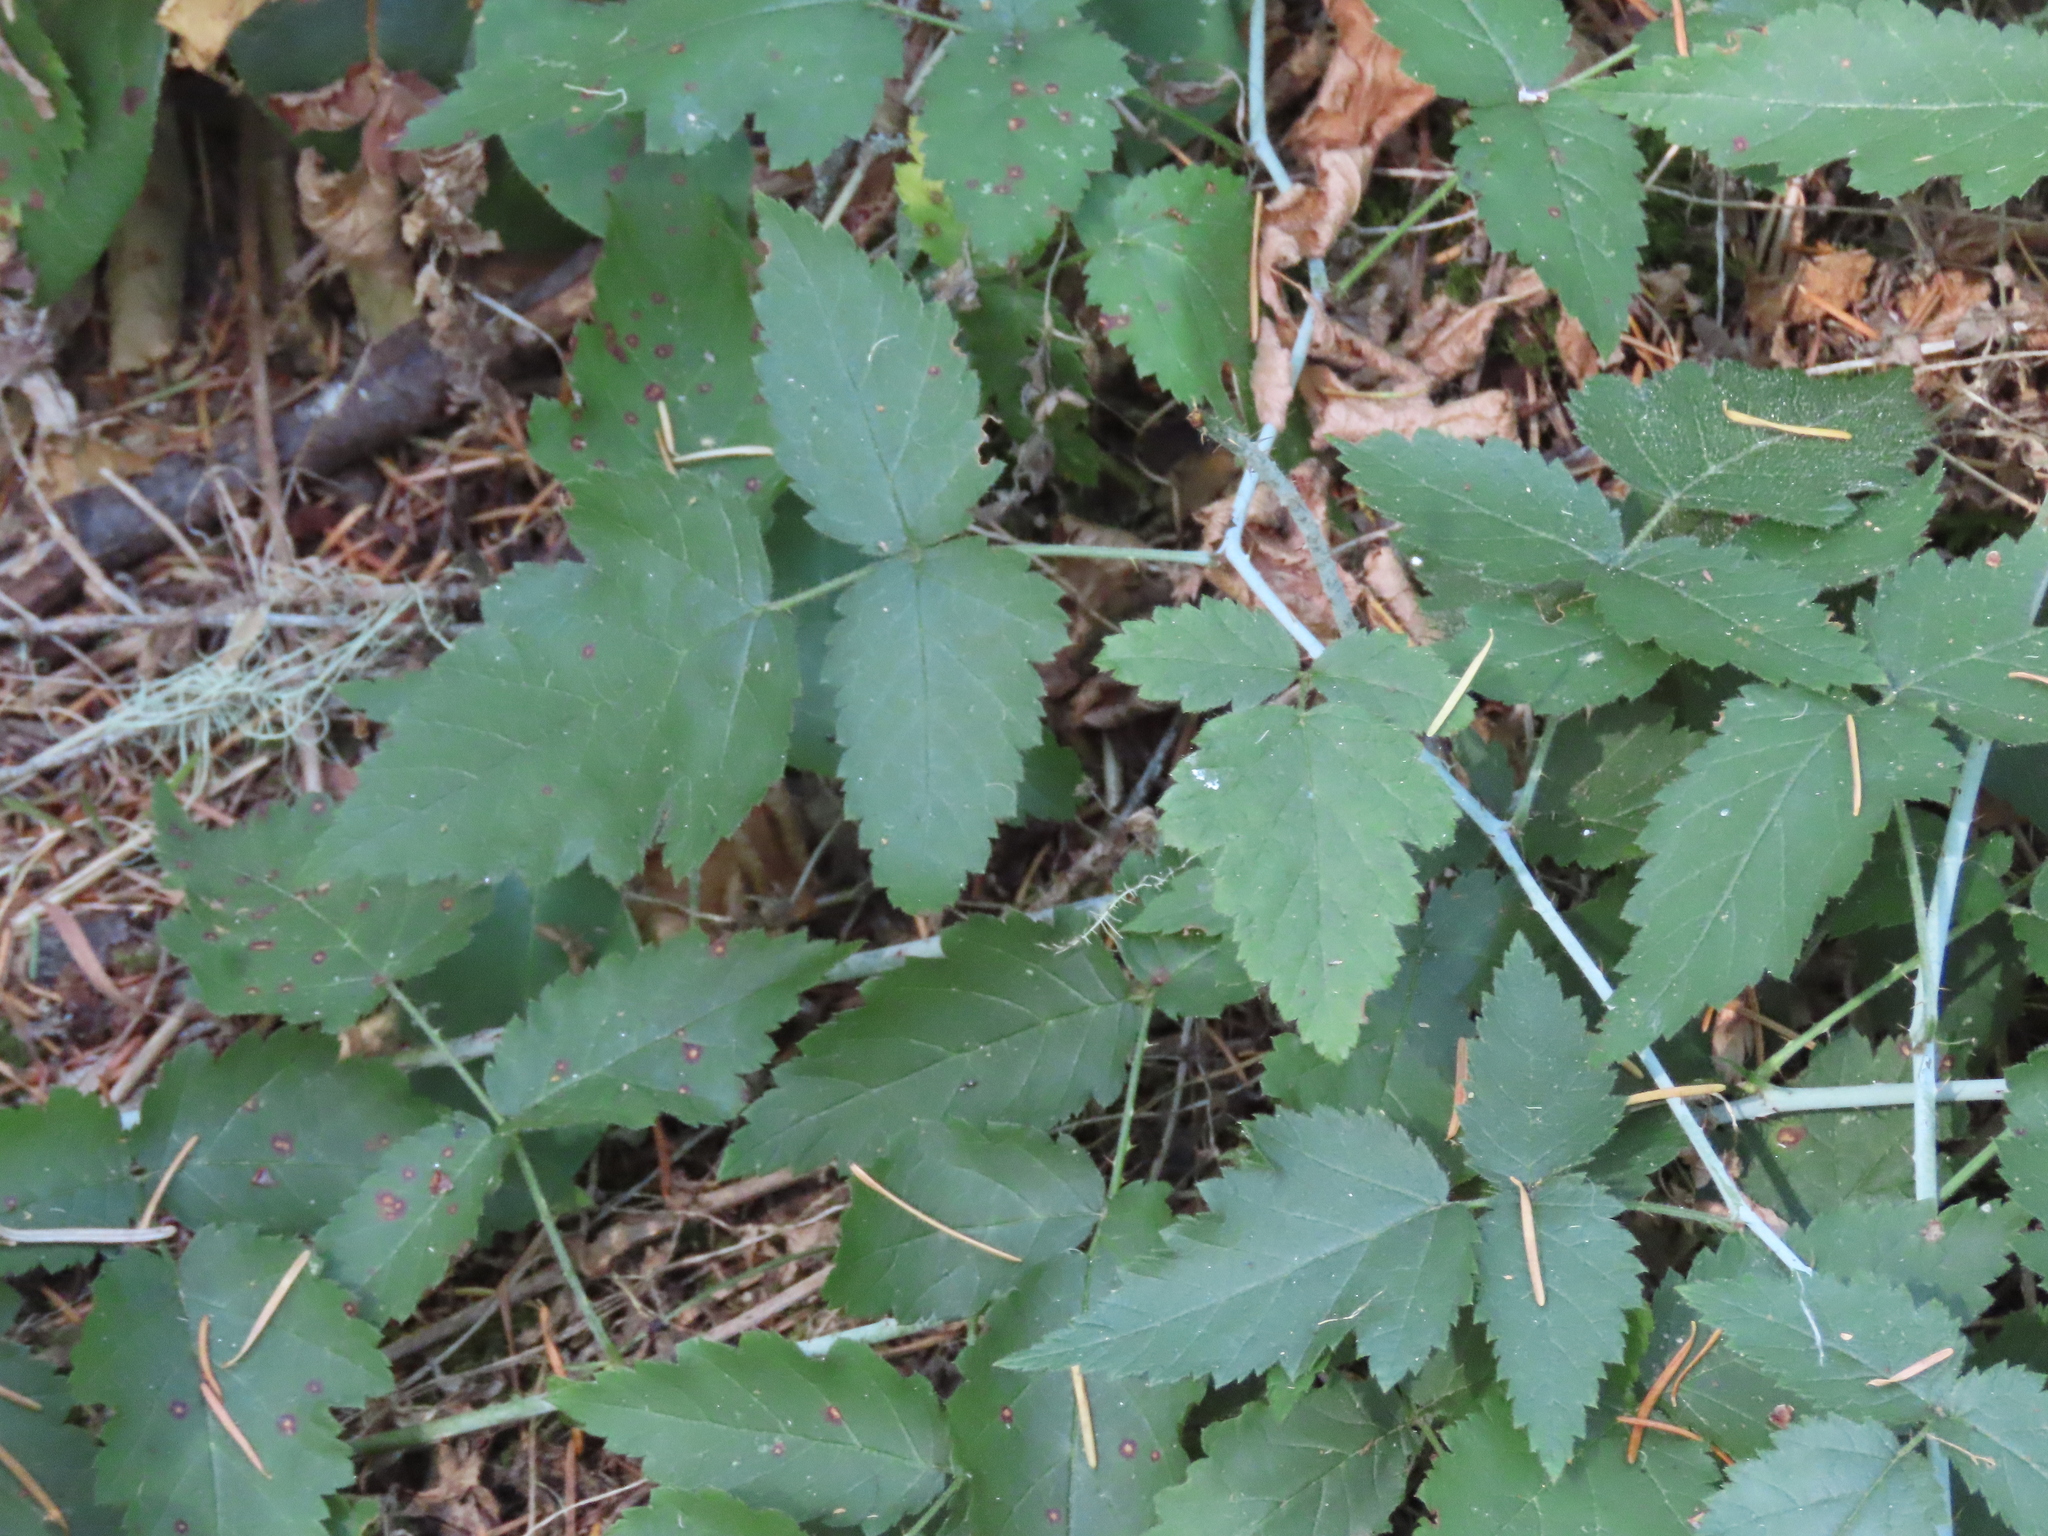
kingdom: Plantae
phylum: Tracheophyta
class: Magnoliopsida
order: Rosales
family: Rosaceae
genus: Rubus
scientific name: Rubus ursinus
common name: Pacific blackberry
